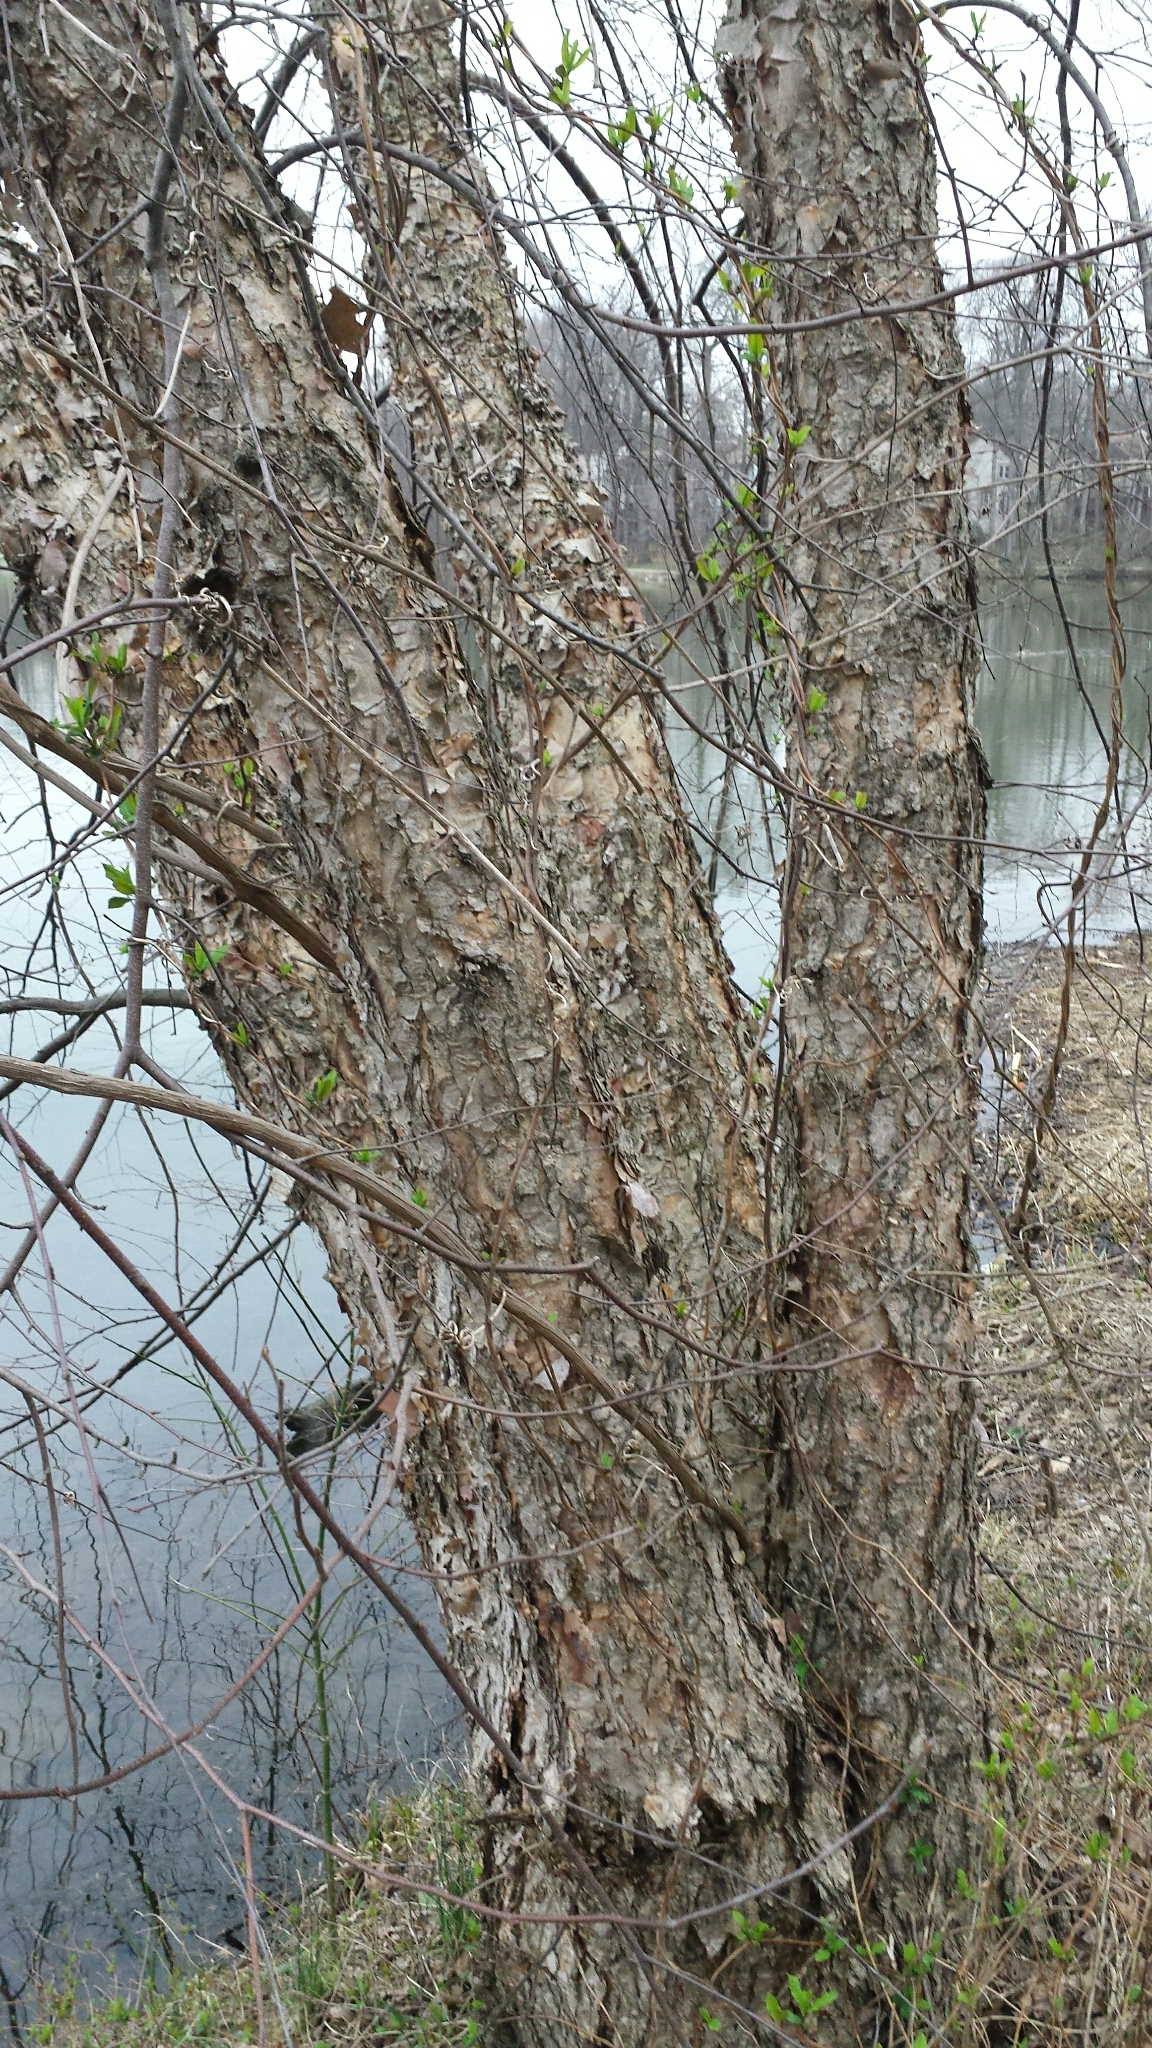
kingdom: Plantae
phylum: Tracheophyta
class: Magnoliopsida
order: Fagales
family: Betulaceae
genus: Betula
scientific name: Betula nigra
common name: Black birch
